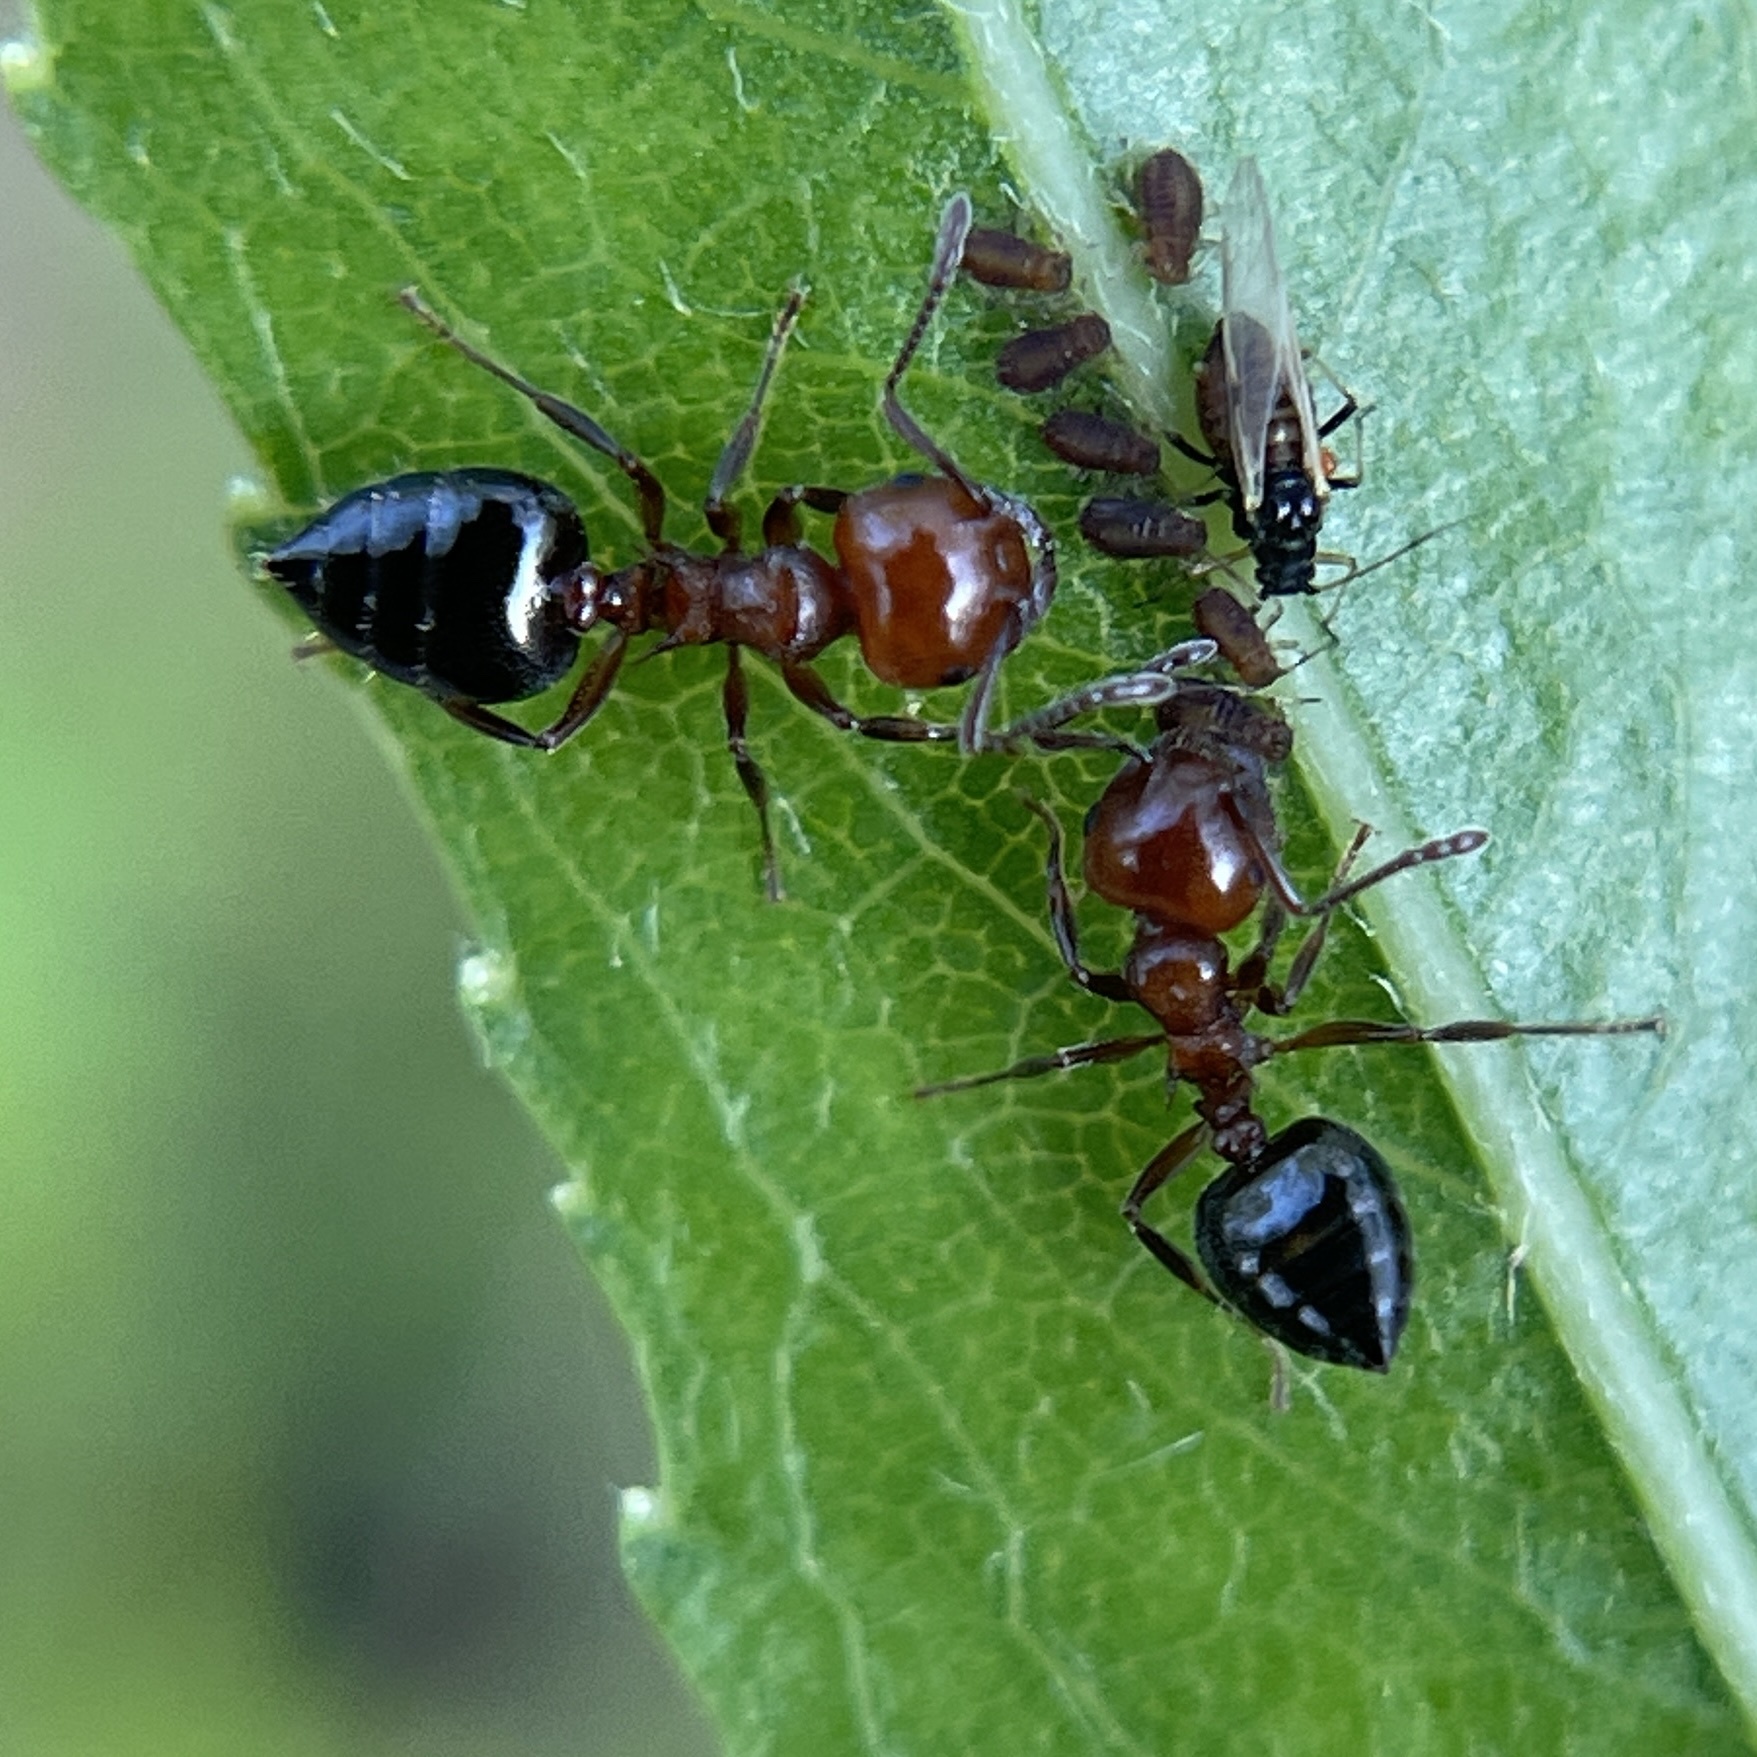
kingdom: Animalia
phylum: Arthropoda
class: Insecta
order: Hymenoptera
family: Formicidae
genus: Crematogaster
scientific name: Crematogaster laeviuscula
